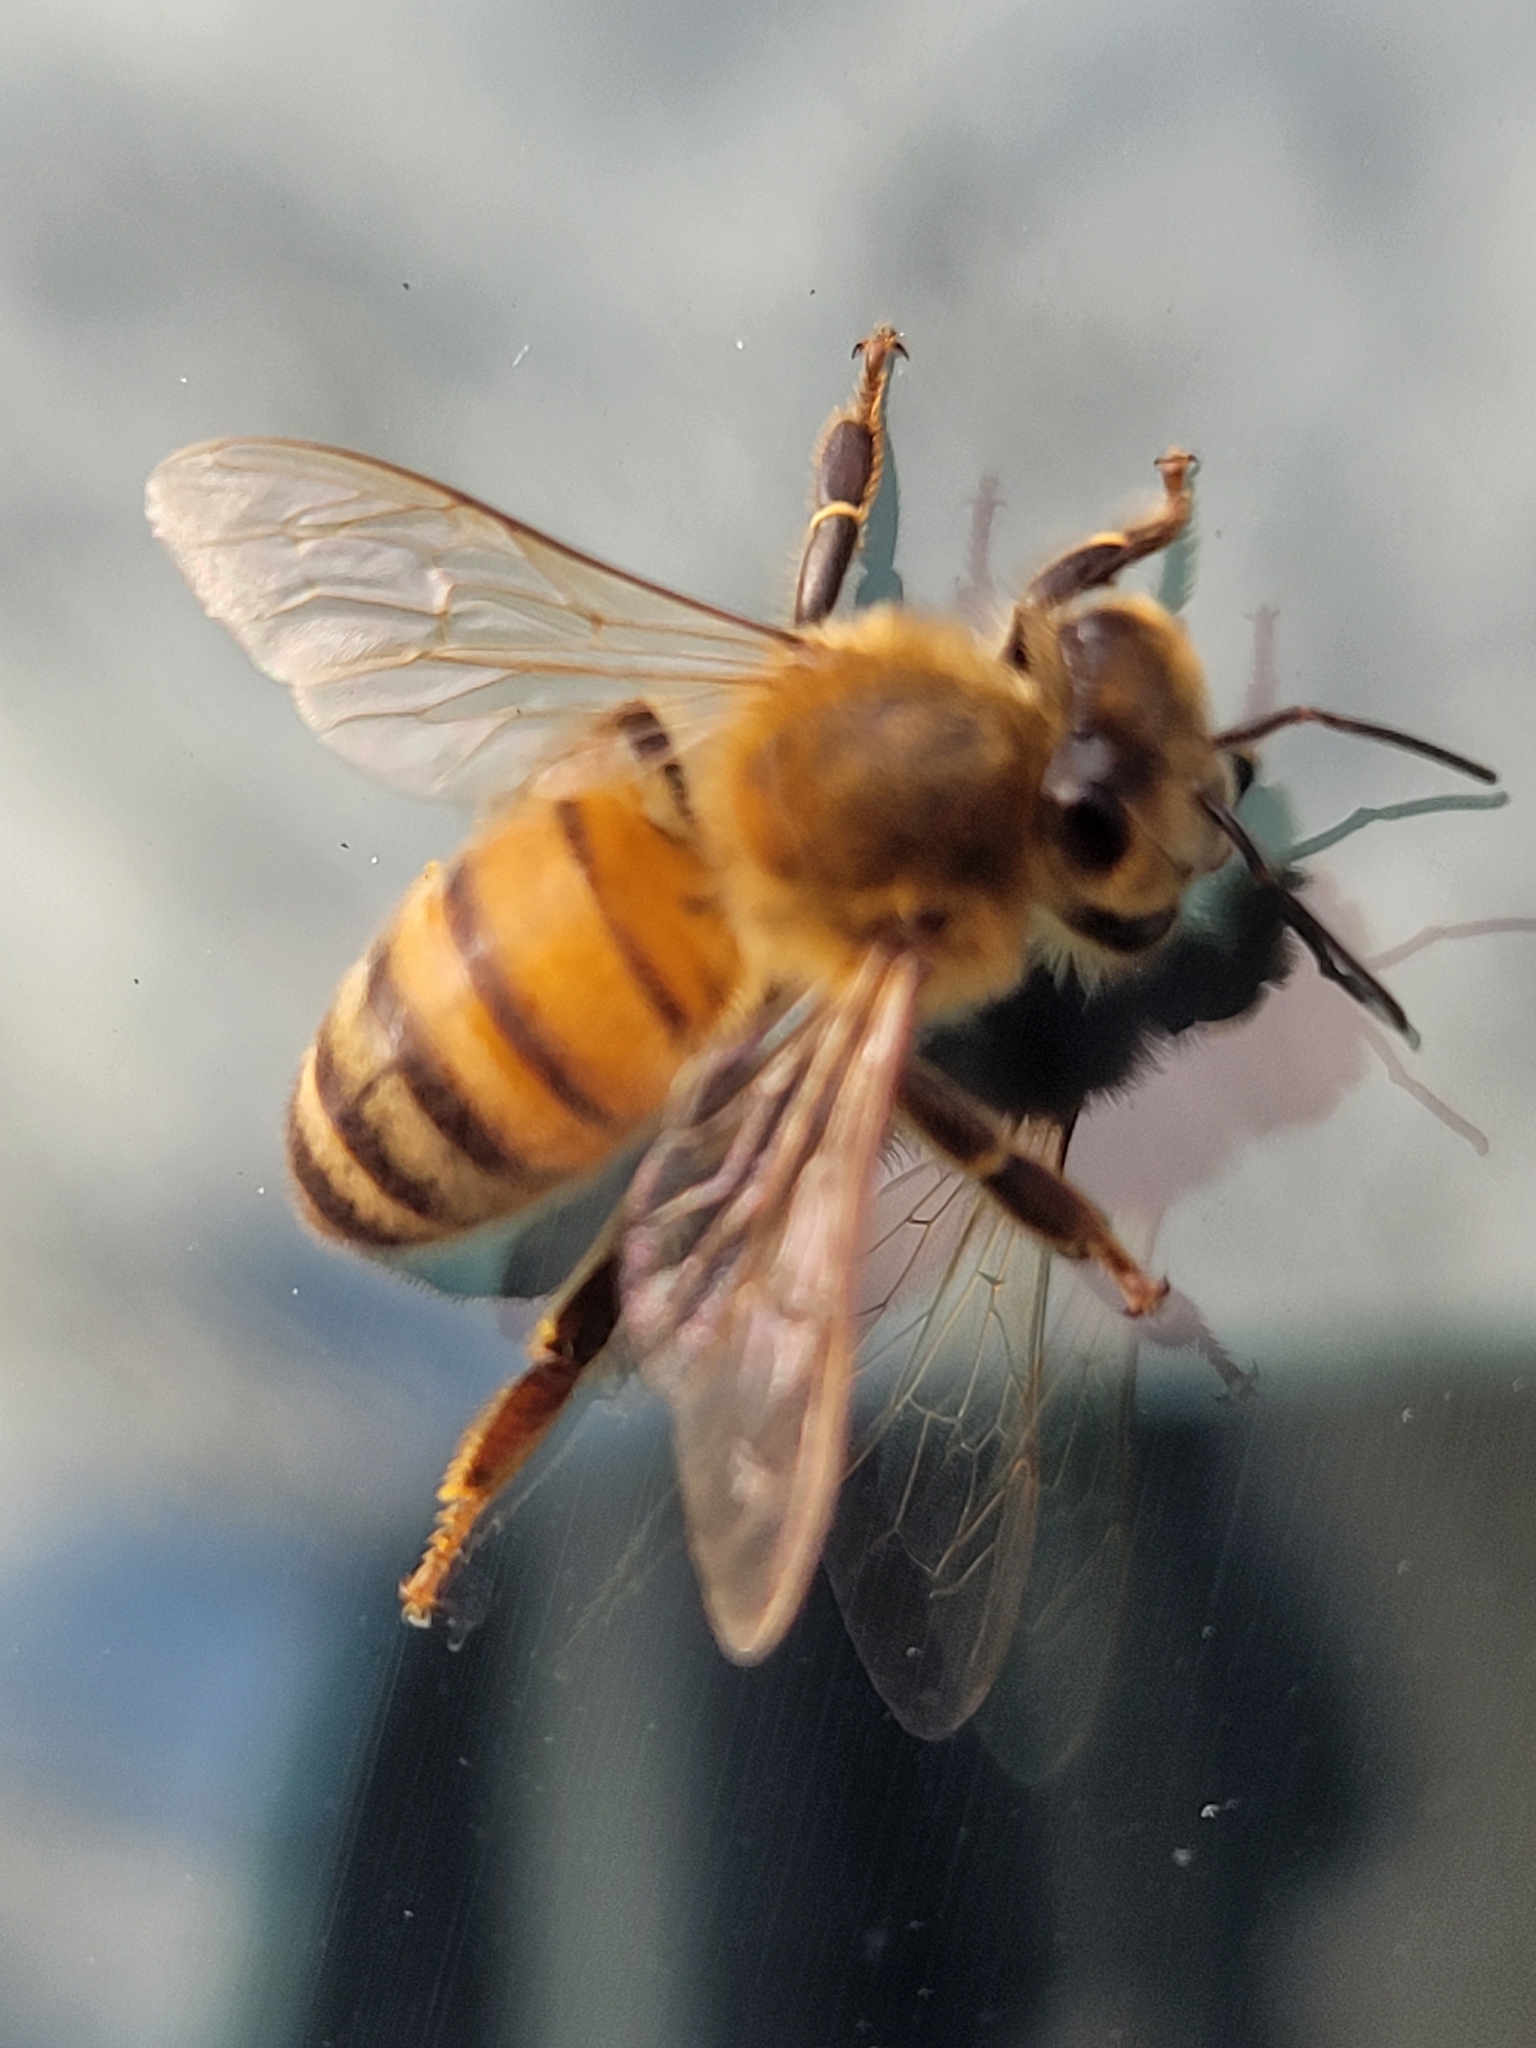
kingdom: Animalia
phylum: Arthropoda
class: Insecta
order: Hymenoptera
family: Apidae
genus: Apis
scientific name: Apis mellifera
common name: Honey bee
